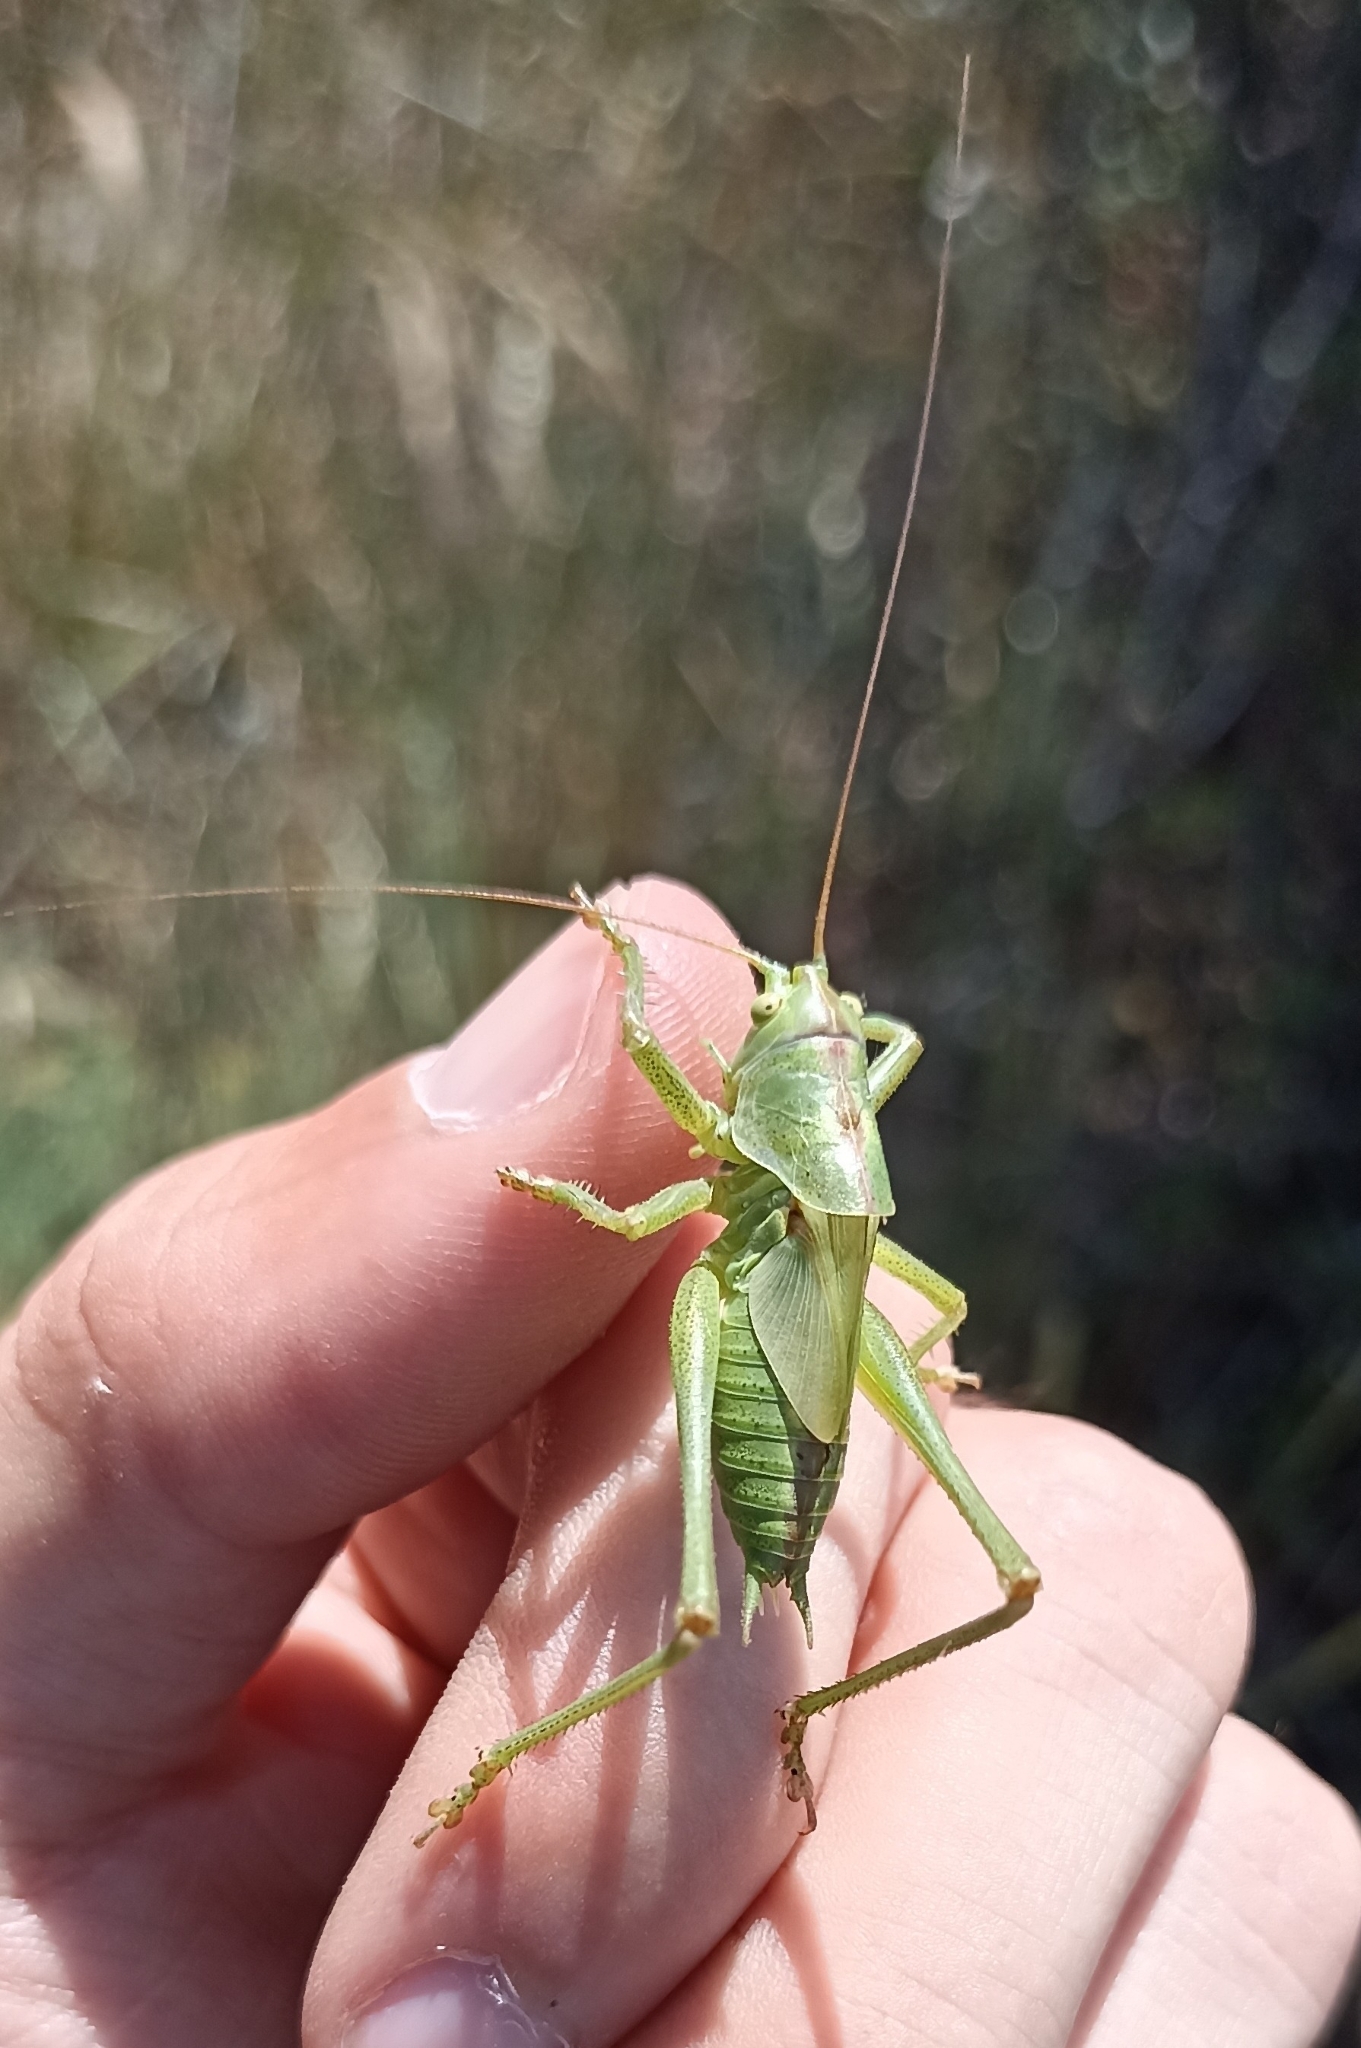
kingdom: Animalia
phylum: Arthropoda
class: Insecta
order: Orthoptera
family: Tettigoniidae
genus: Tettigonia
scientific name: Tettigonia viridissima
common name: Great green bush-cricket
